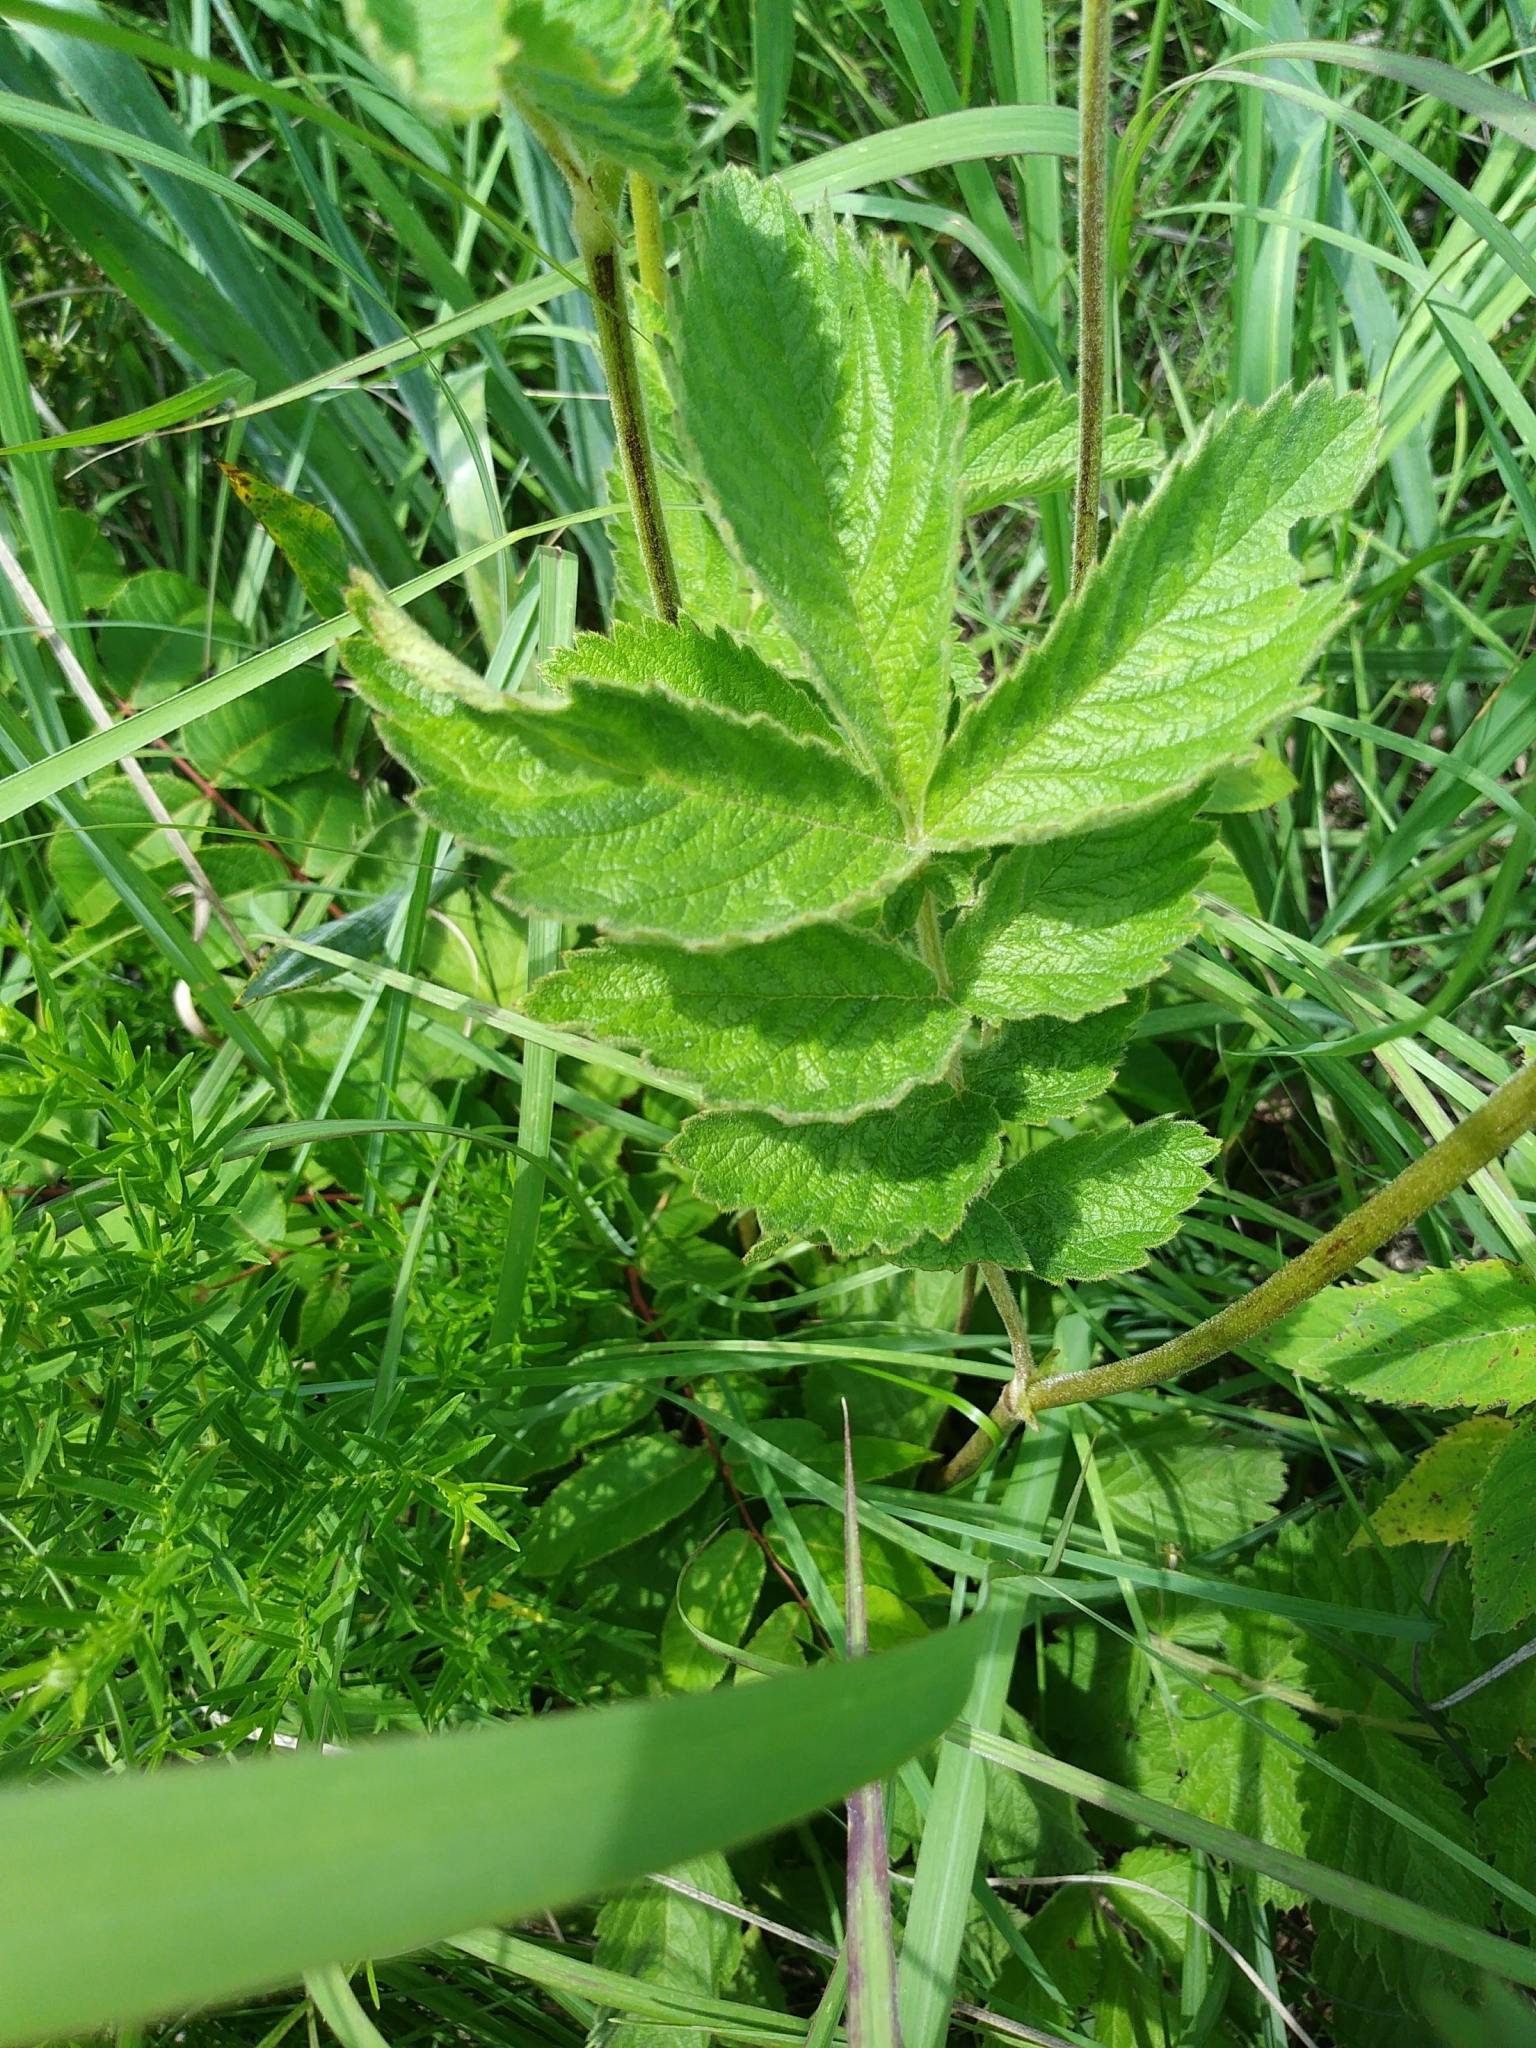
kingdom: Plantae
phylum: Tracheophyta
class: Magnoliopsida
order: Rosales
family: Rosaceae
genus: Drymocallis
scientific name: Drymocallis arguta
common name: Tall cinquefoil
